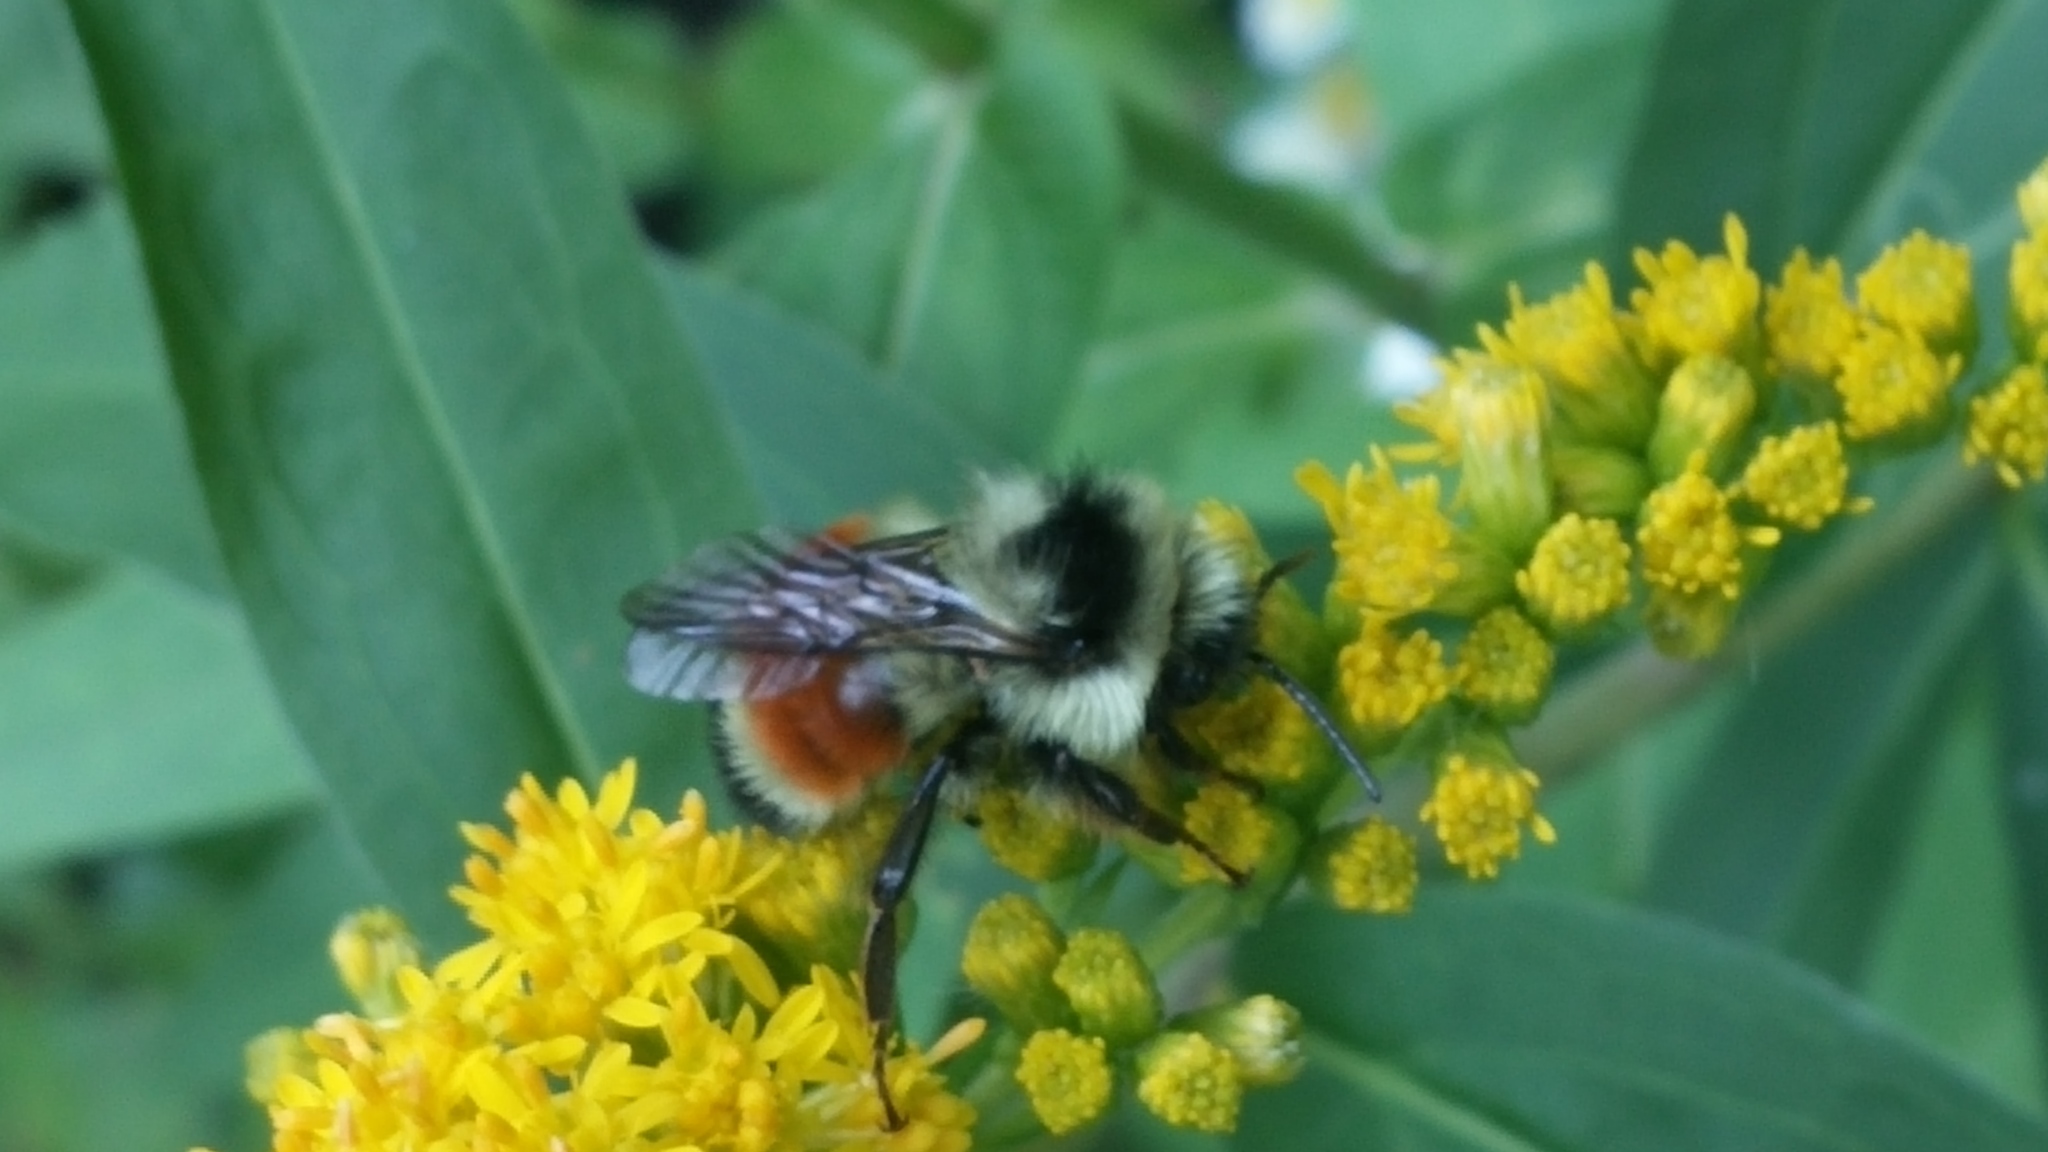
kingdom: Animalia
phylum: Arthropoda
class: Insecta
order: Hymenoptera
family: Apidae
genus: Bombus
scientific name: Bombus ternarius
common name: Tri-colored bumble bee
